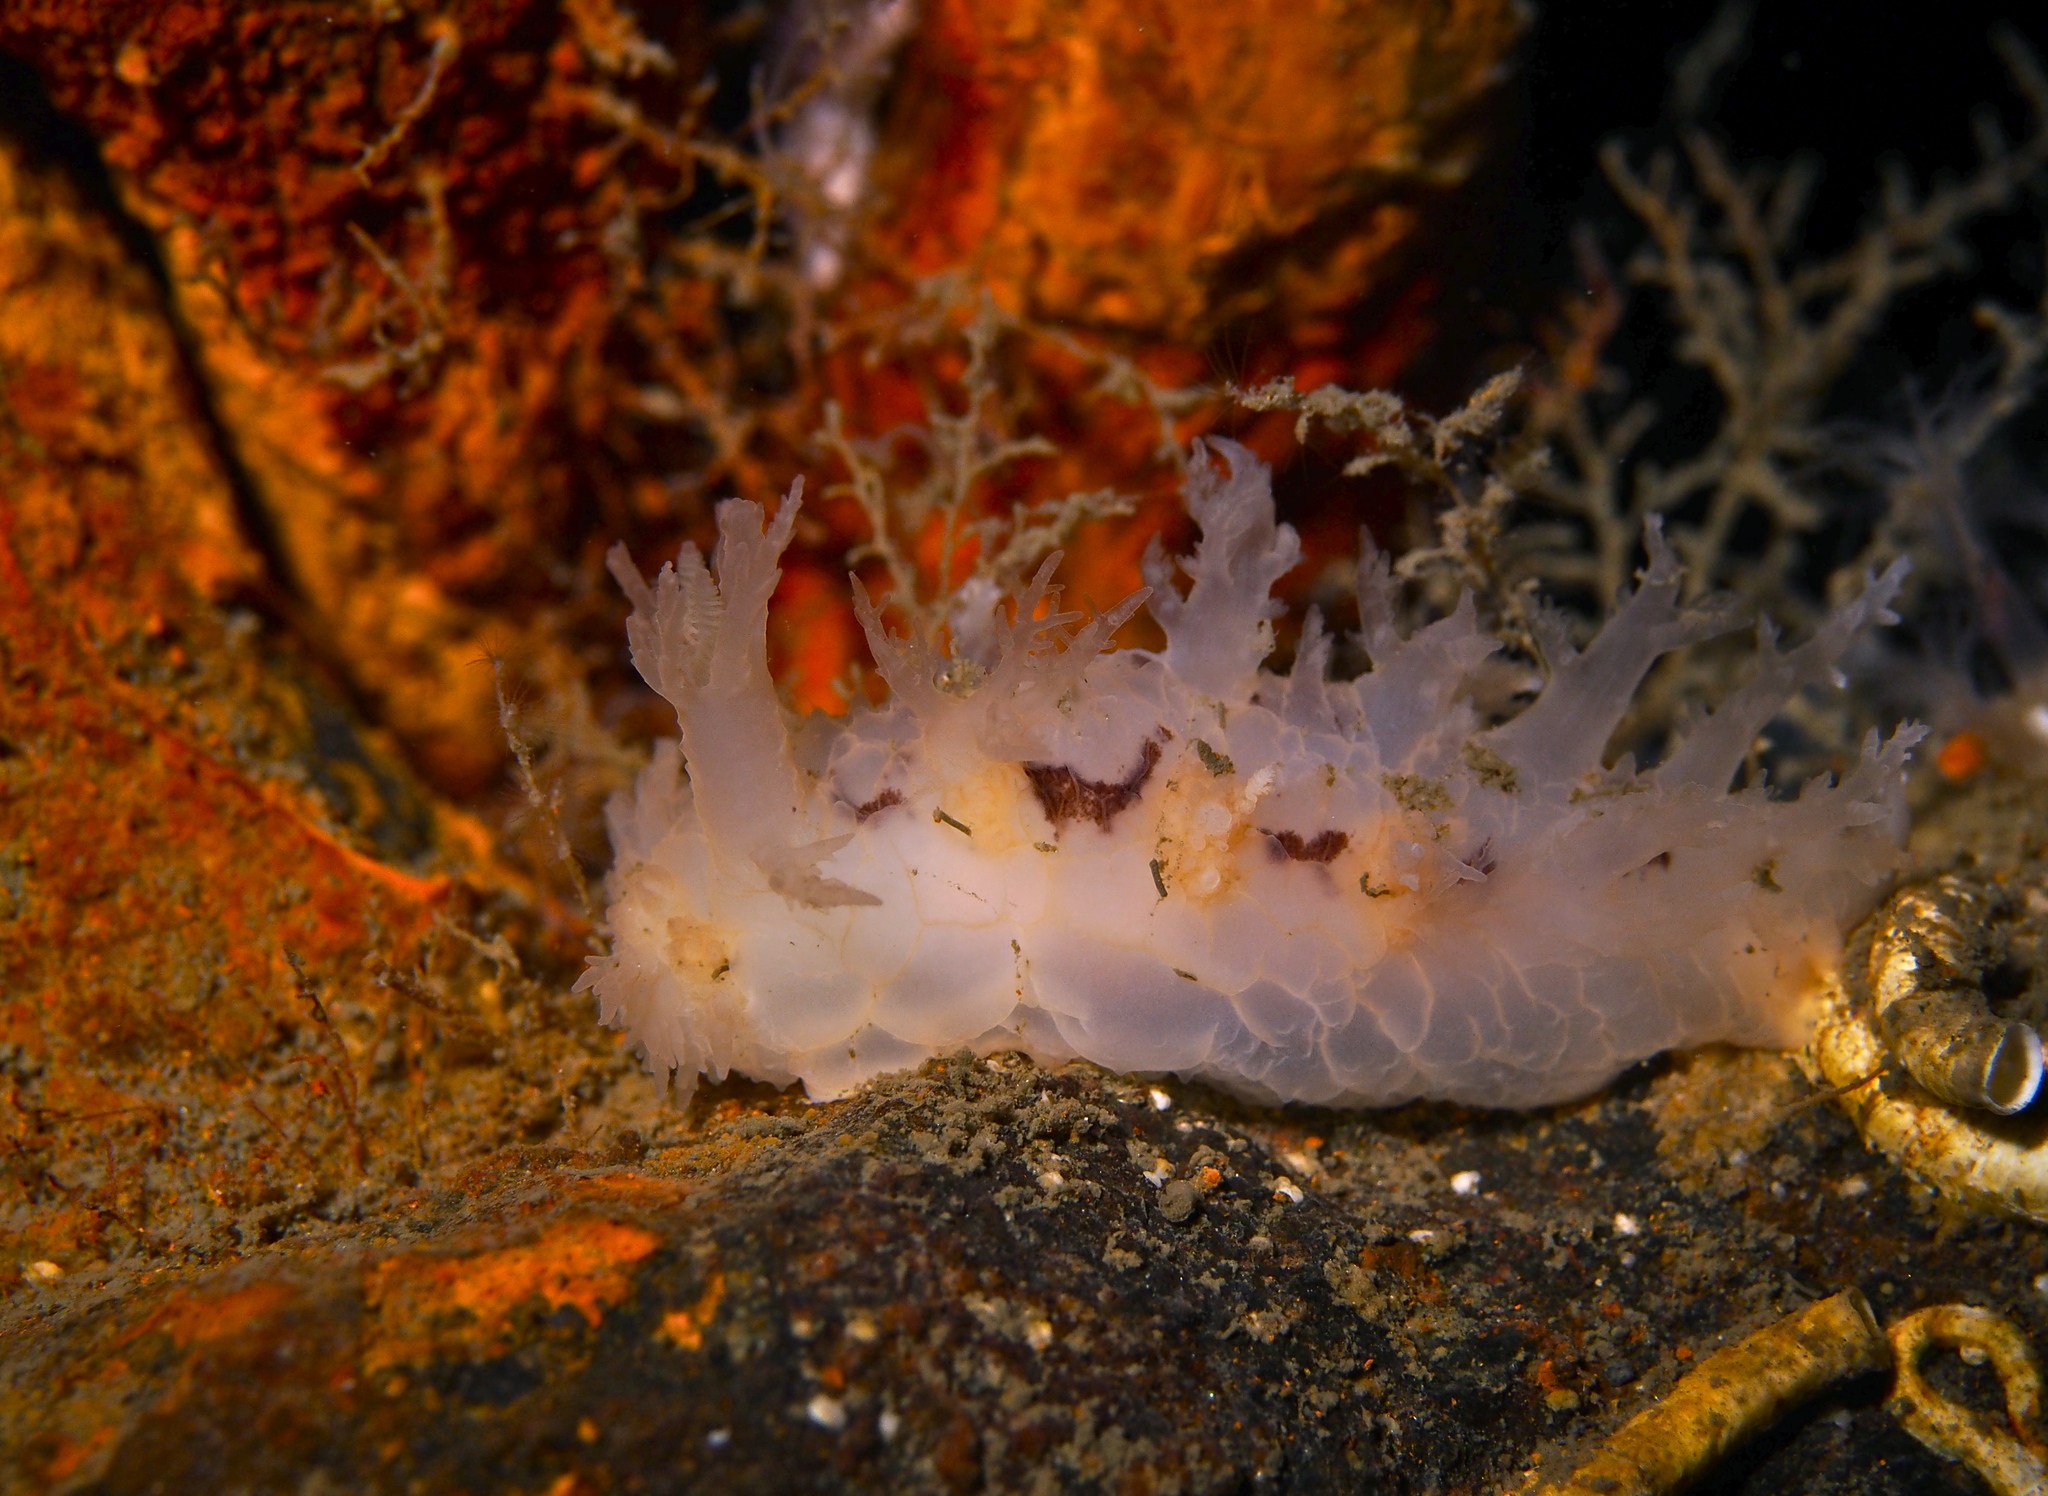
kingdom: Animalia
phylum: Mollusca
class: Gastropoda
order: Nudibranchia
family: Dendronotidae
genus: Dendronotus
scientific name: Dendronotus lacteus
